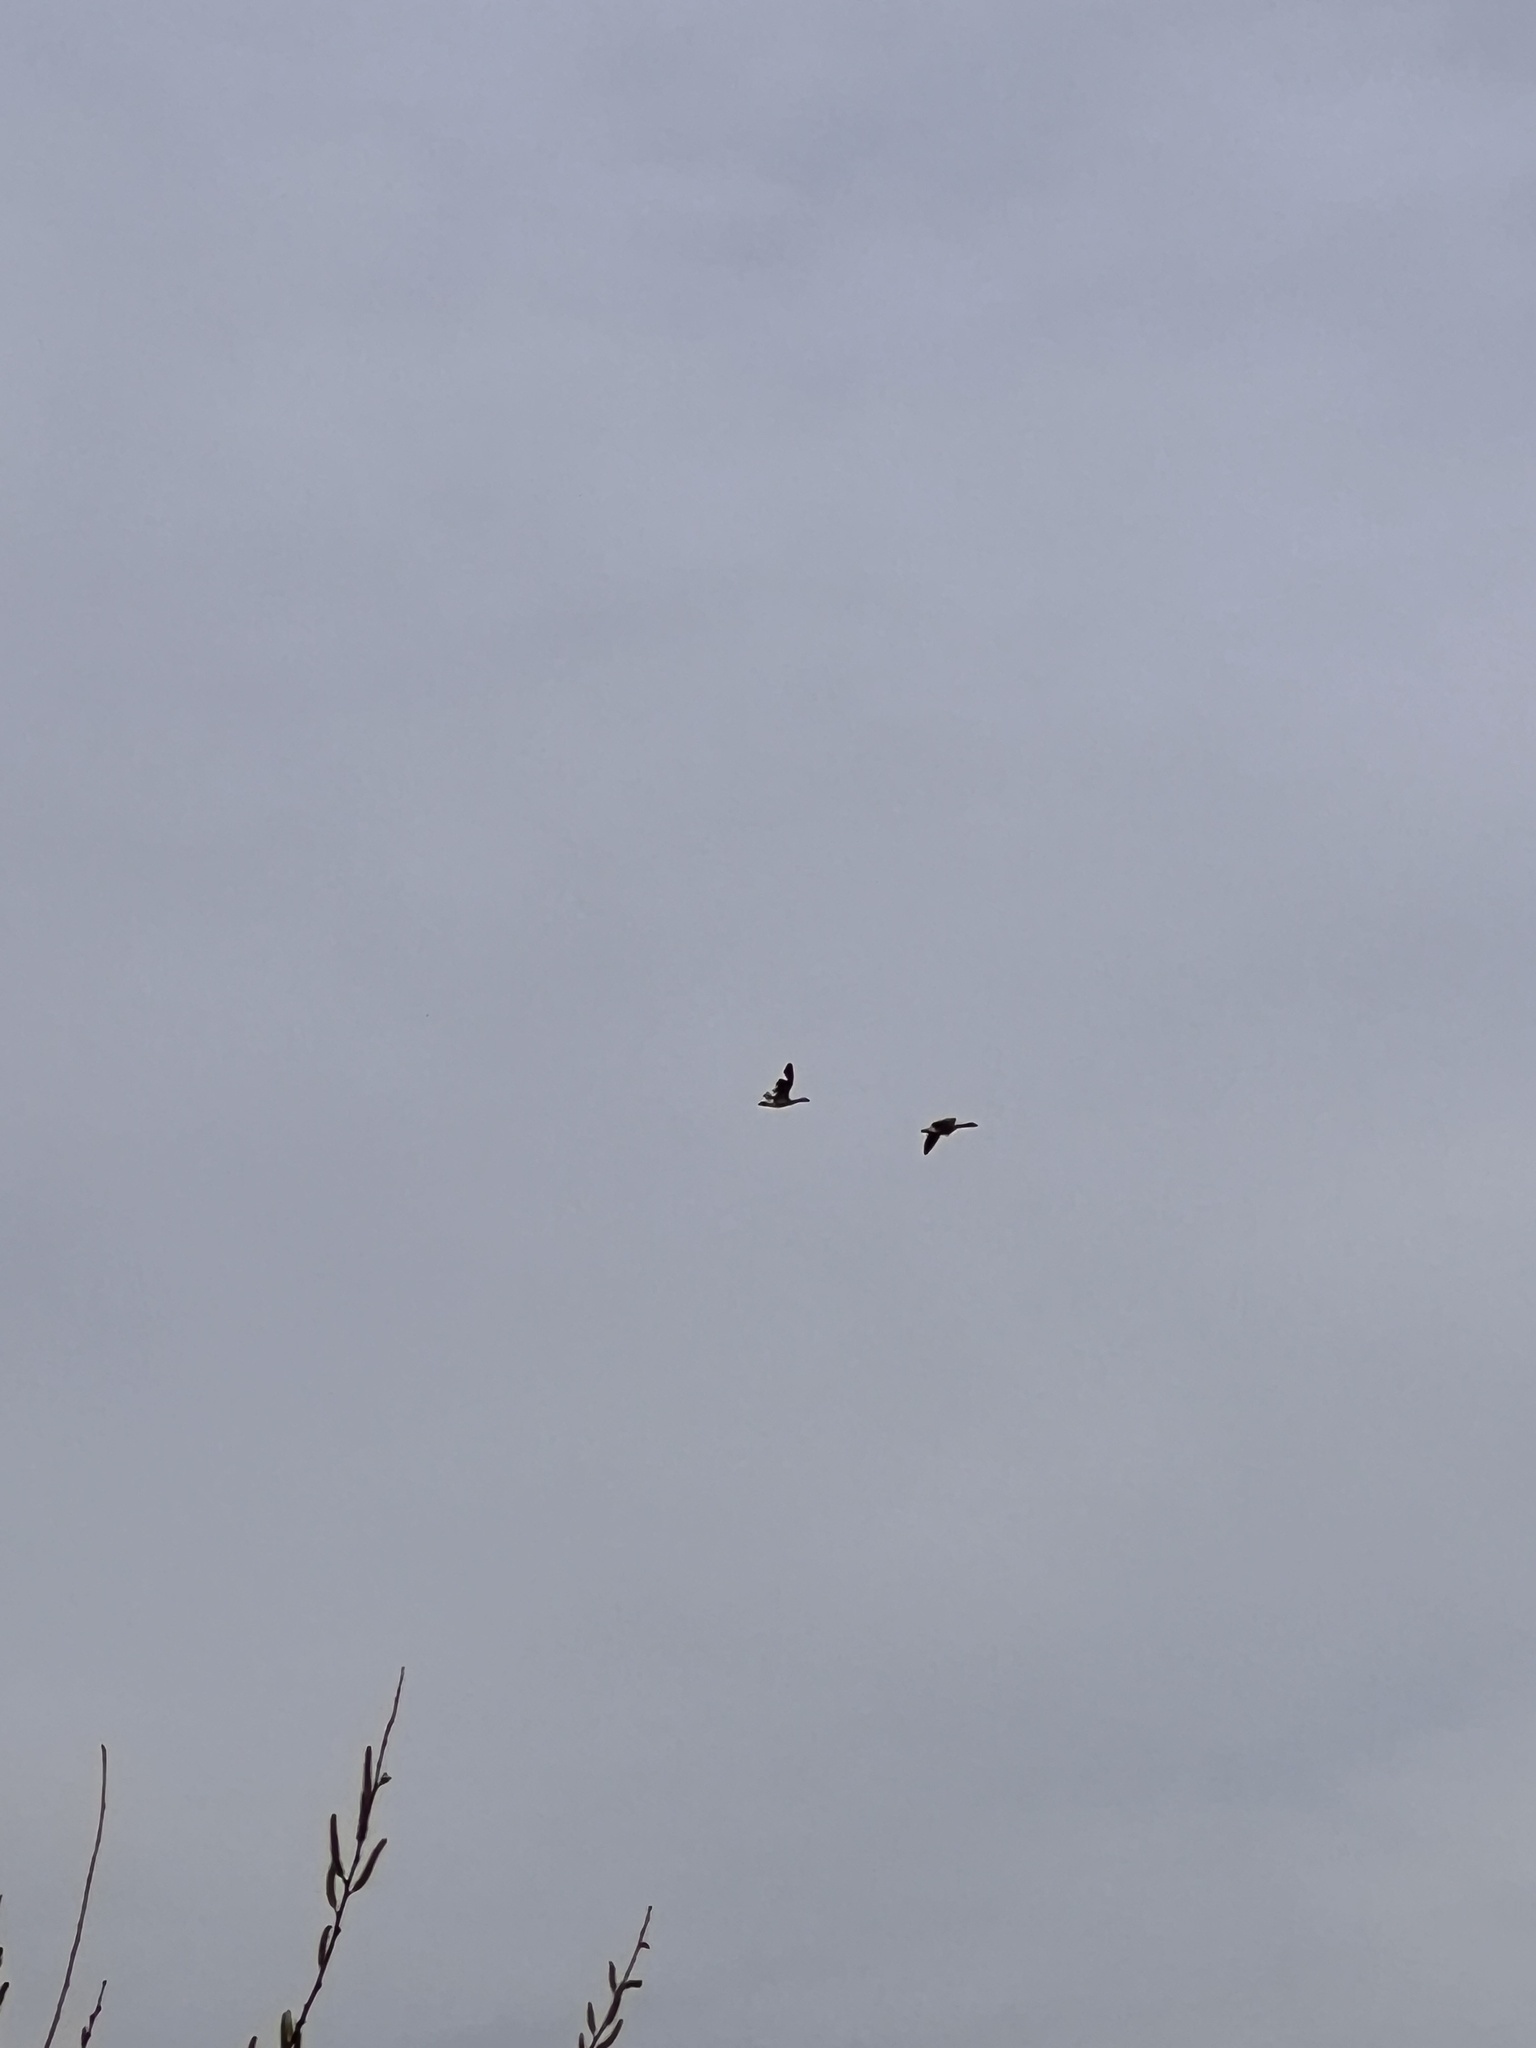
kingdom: Animalia
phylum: Chordata
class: Aves
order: Anseriformes
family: Anatidae
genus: Branta
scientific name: Branta canadensis
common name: Canada goose
